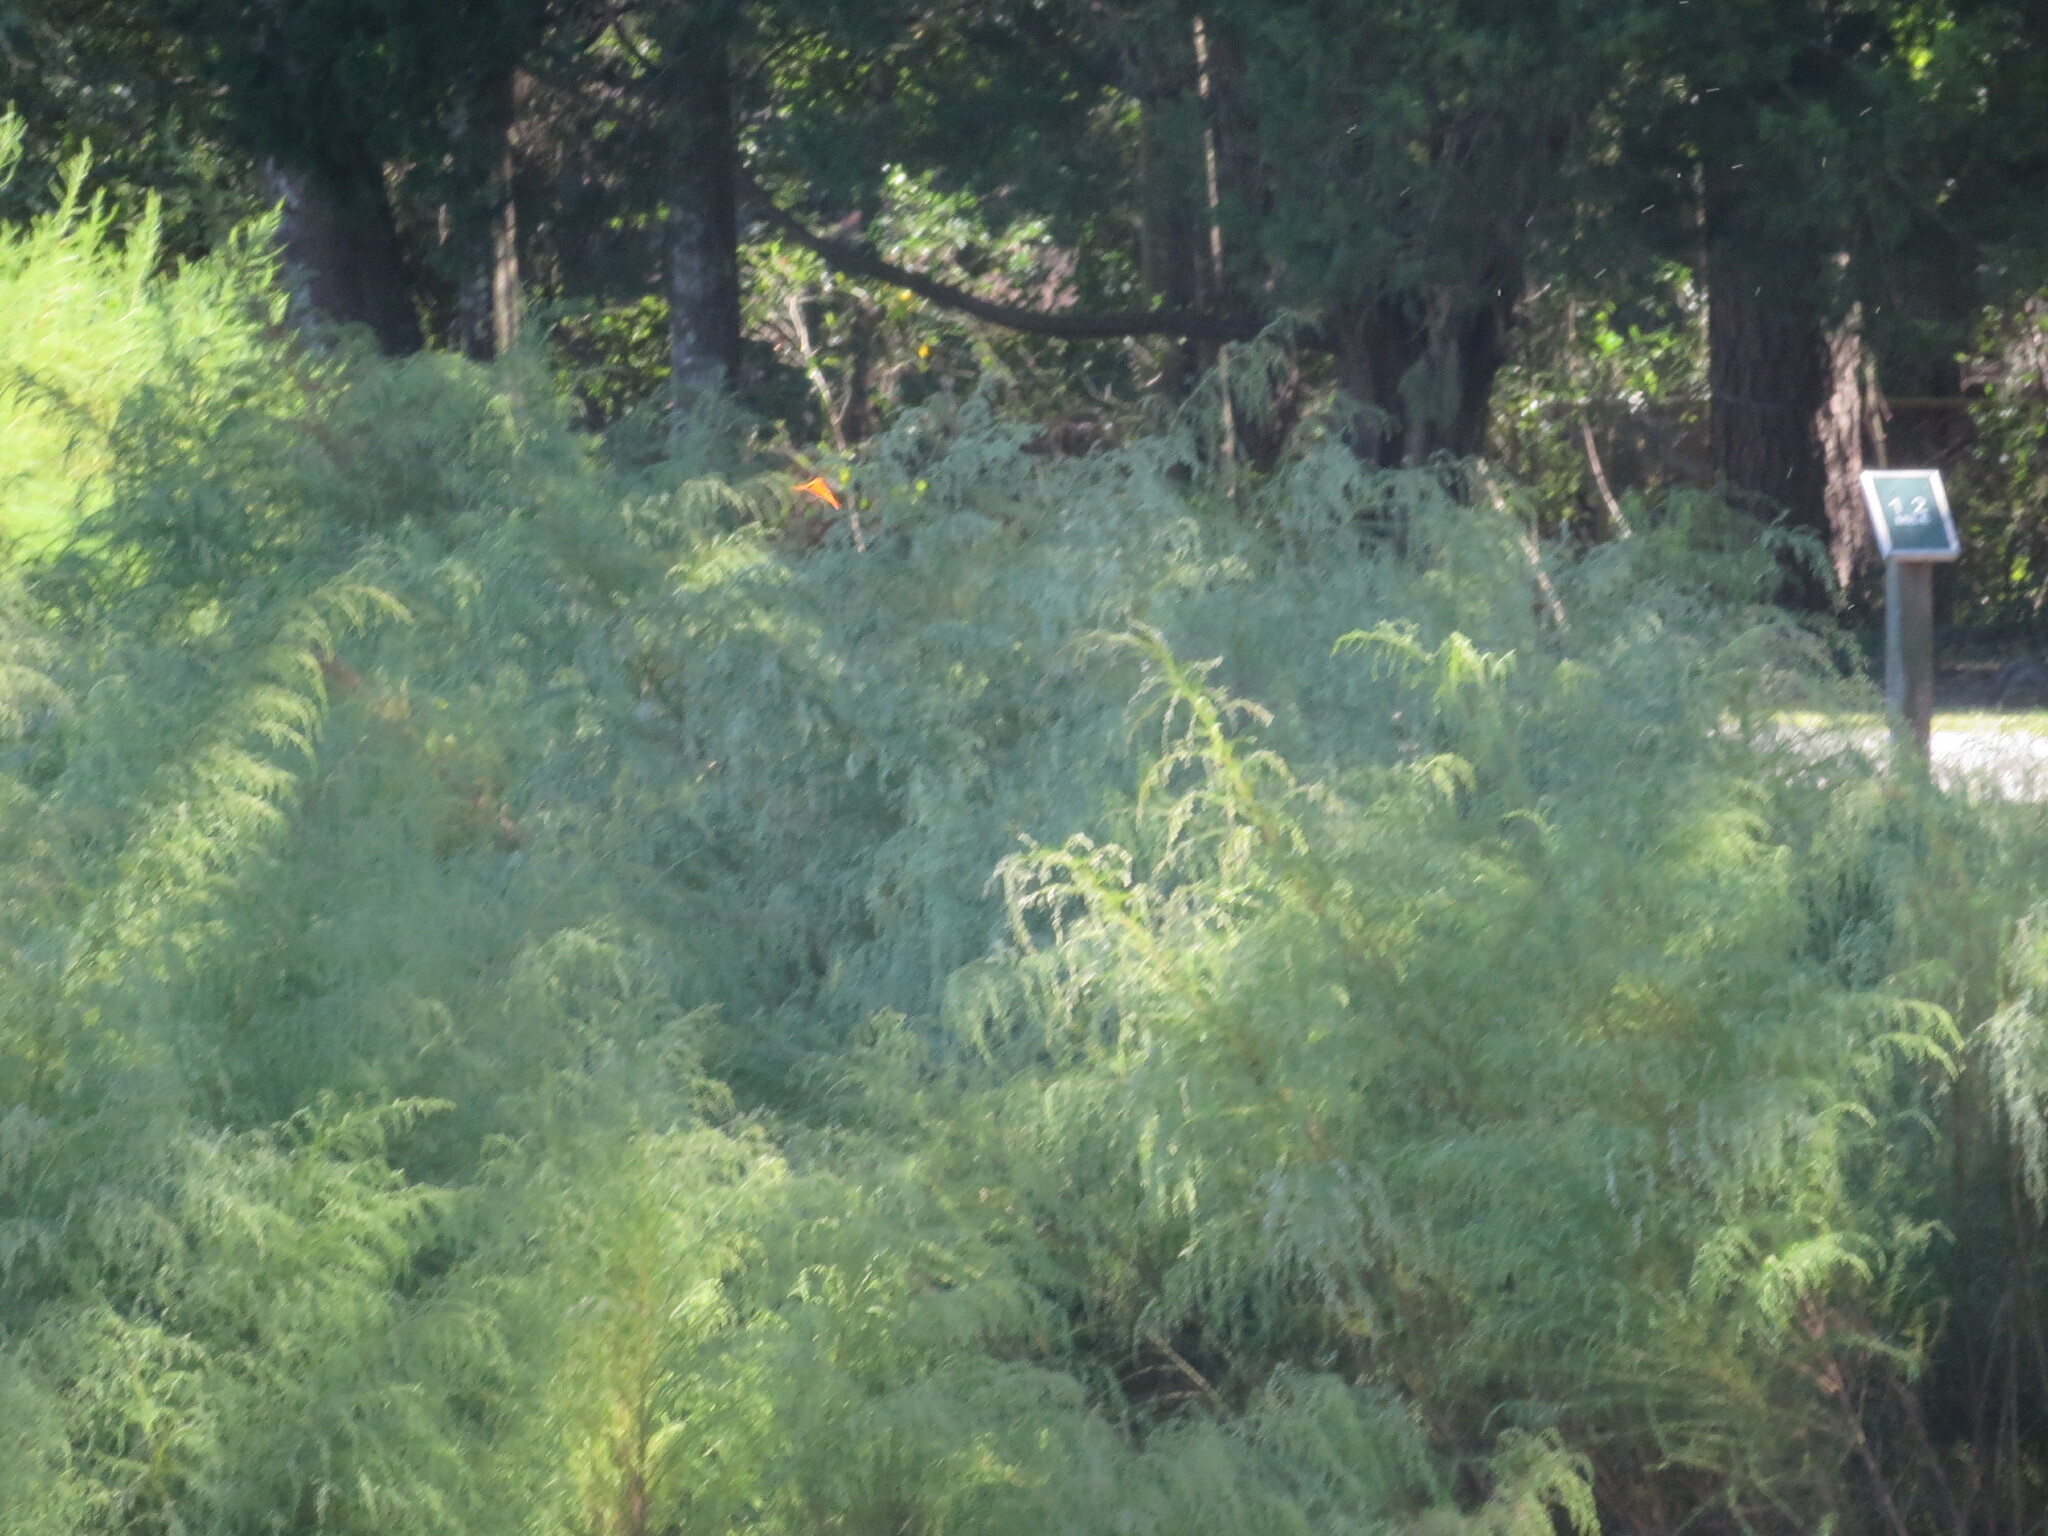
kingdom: Animalia
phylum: Arthropoda
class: Insecta
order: Lepidoptera
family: Nymphalidae
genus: Dione
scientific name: Dione vanillae
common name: Gulf fritillary
